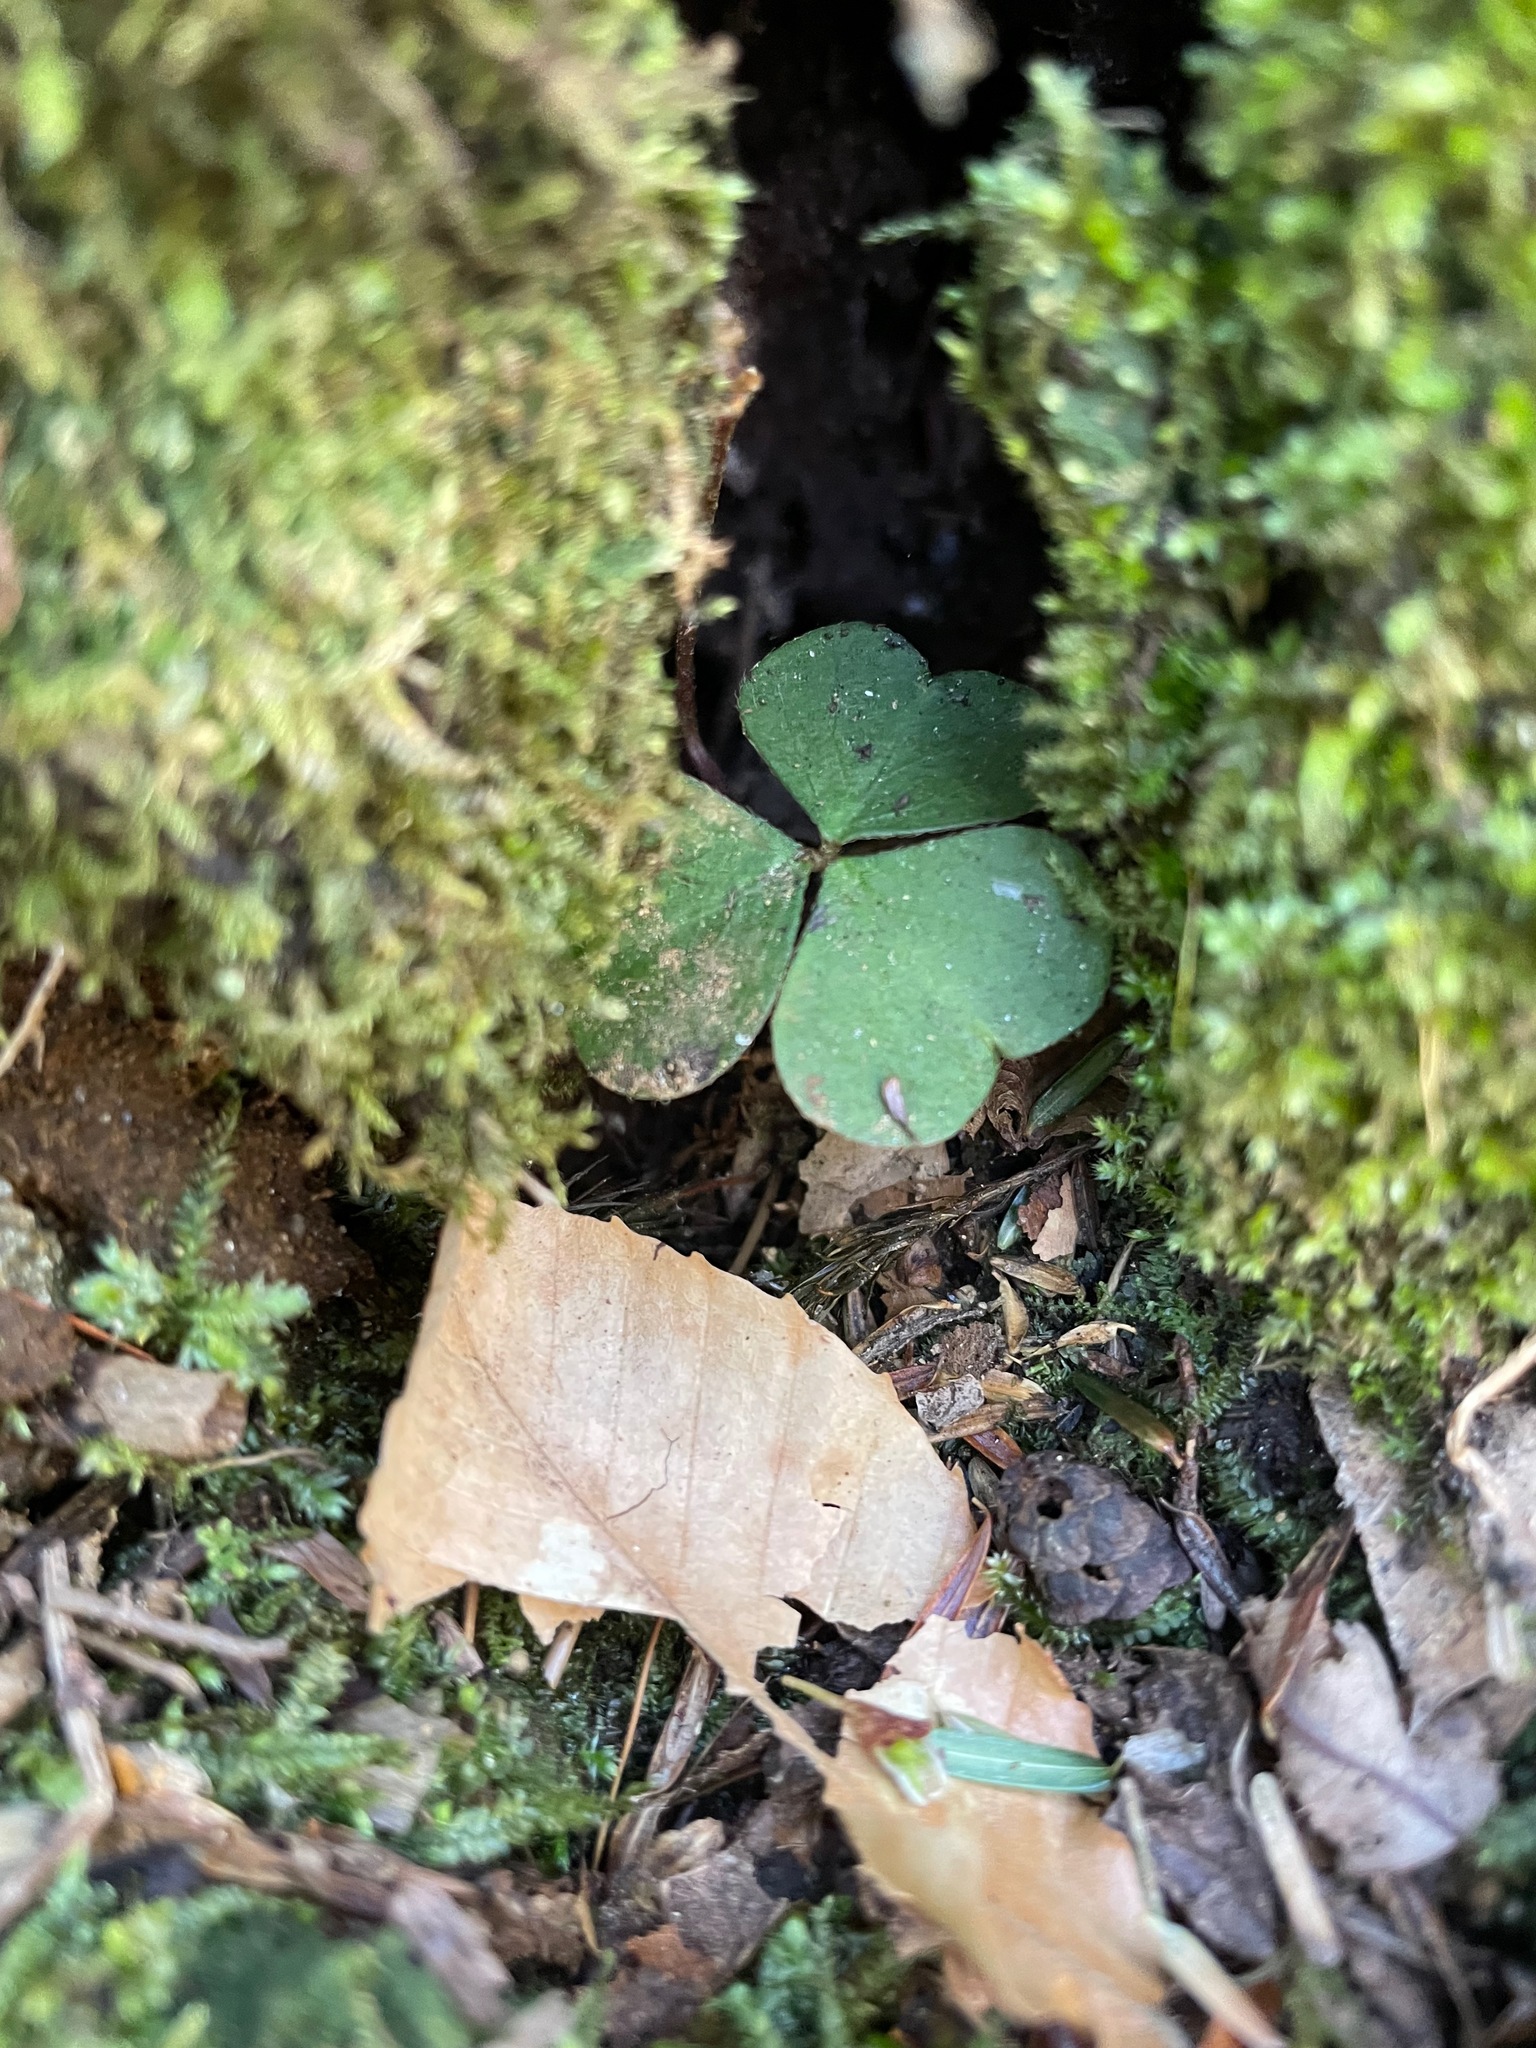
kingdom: Plantae
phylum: Tracheophyta
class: Magnoliopsida
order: Oxalidales
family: Oxalidaceae
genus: Oxalis
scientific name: Oxalis montana
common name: American wood-sorrel
